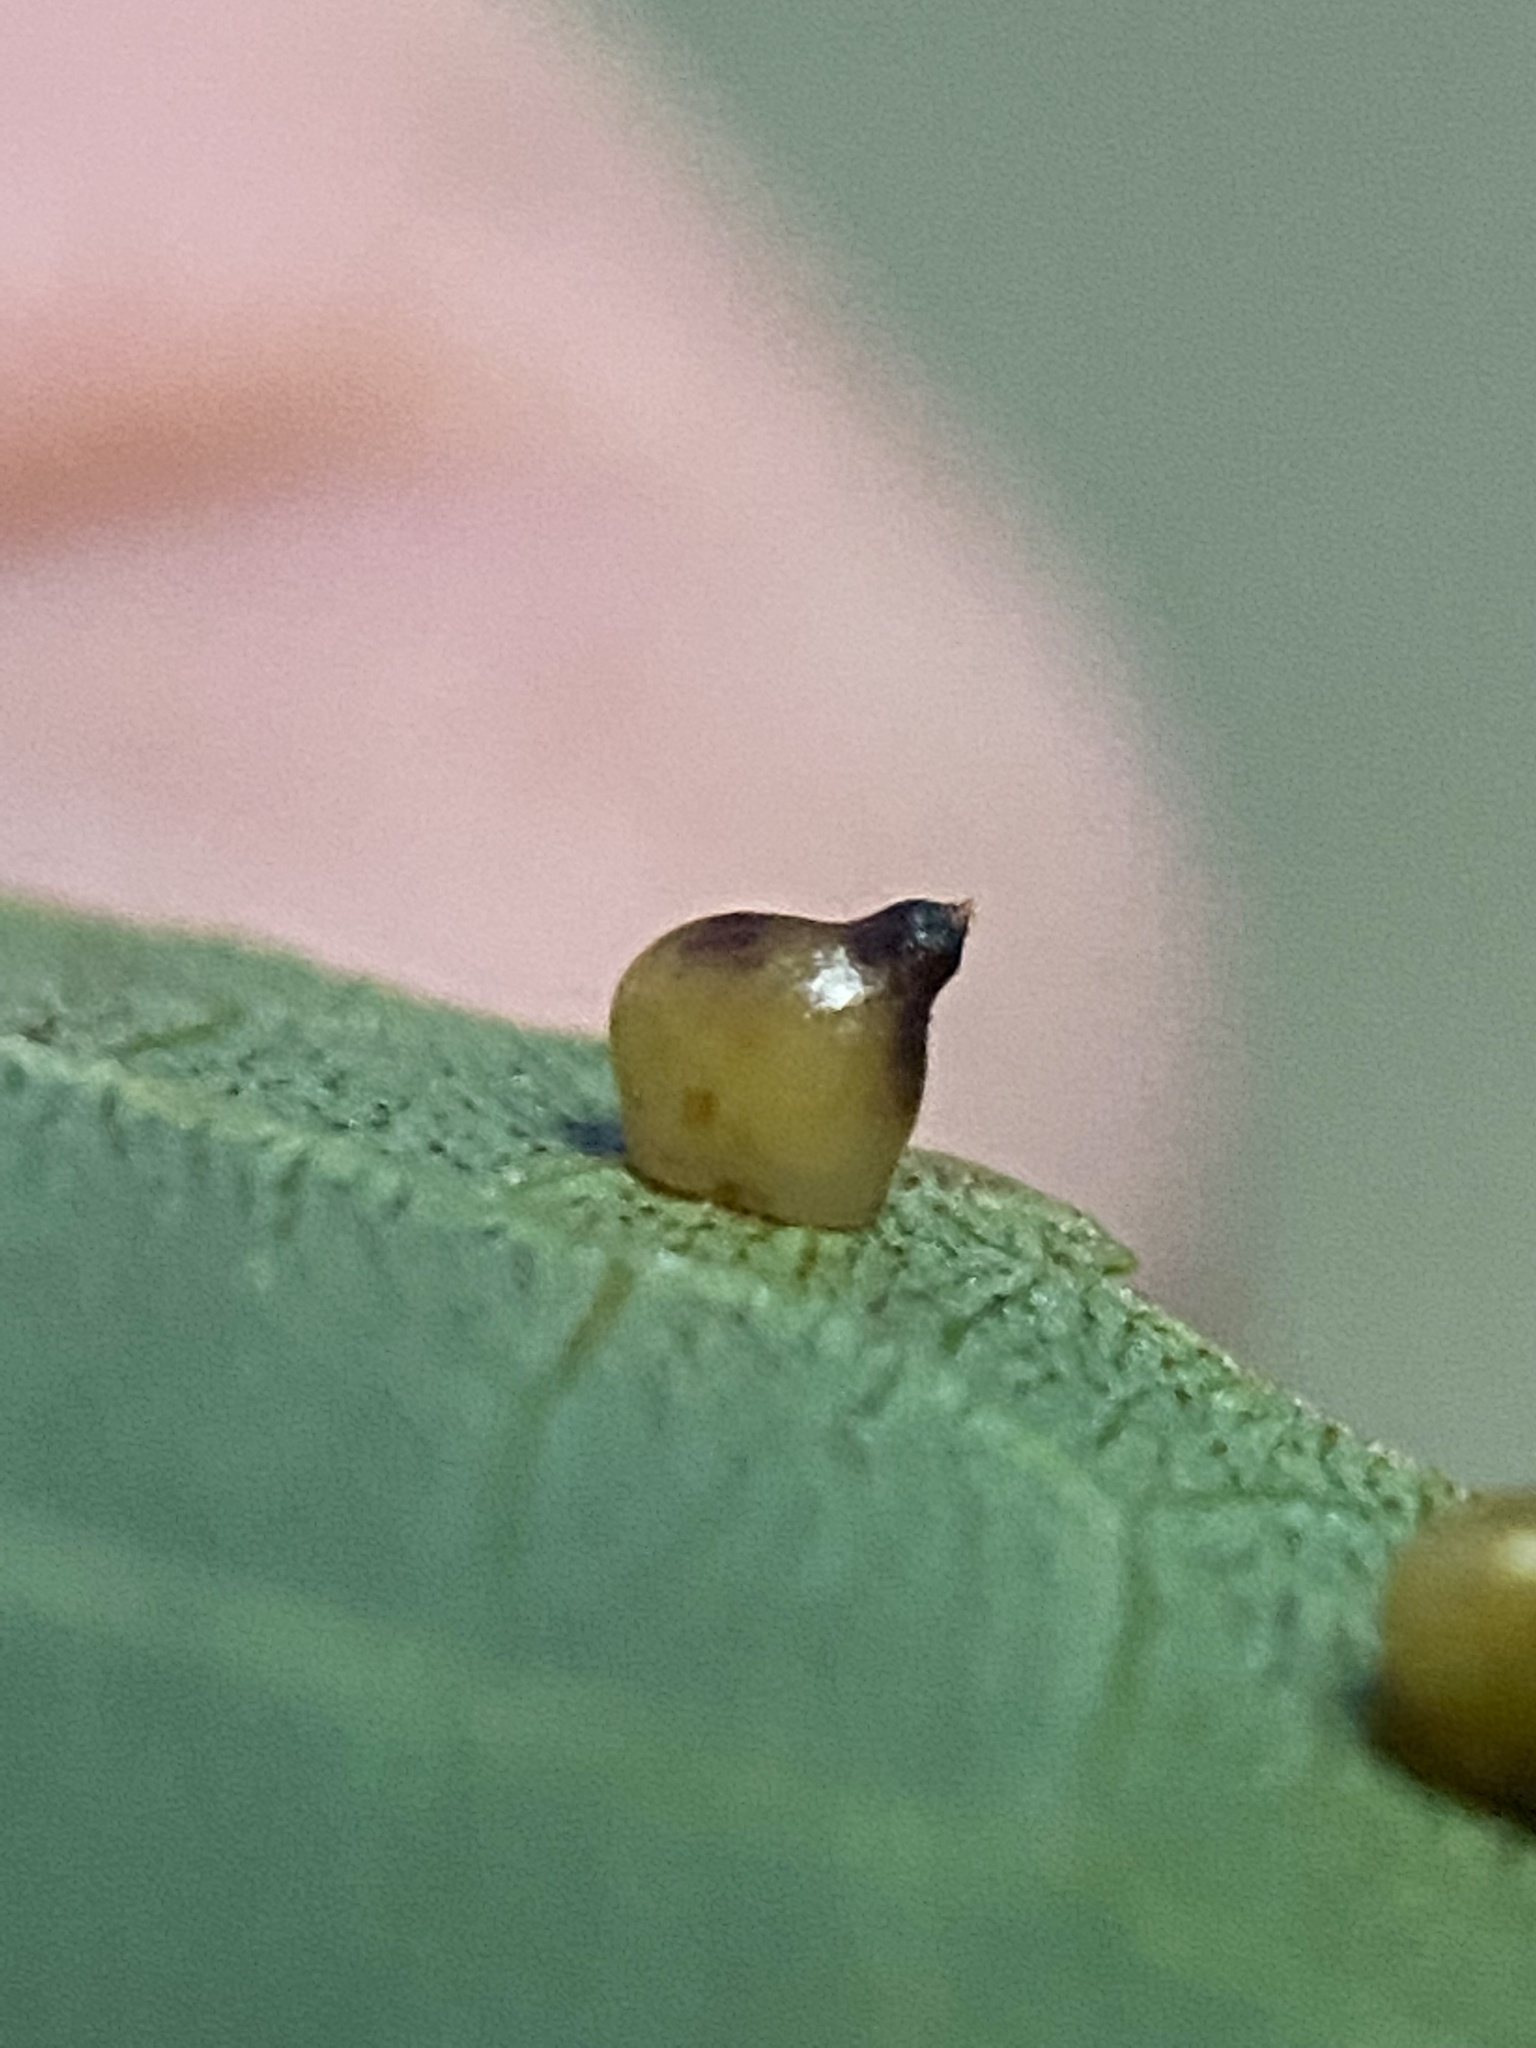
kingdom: Animalia
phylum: Arthropoda
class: Insecta
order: Diptera
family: Cecidomyiidae
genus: Caryomyia
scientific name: Caryomyia shmoo
